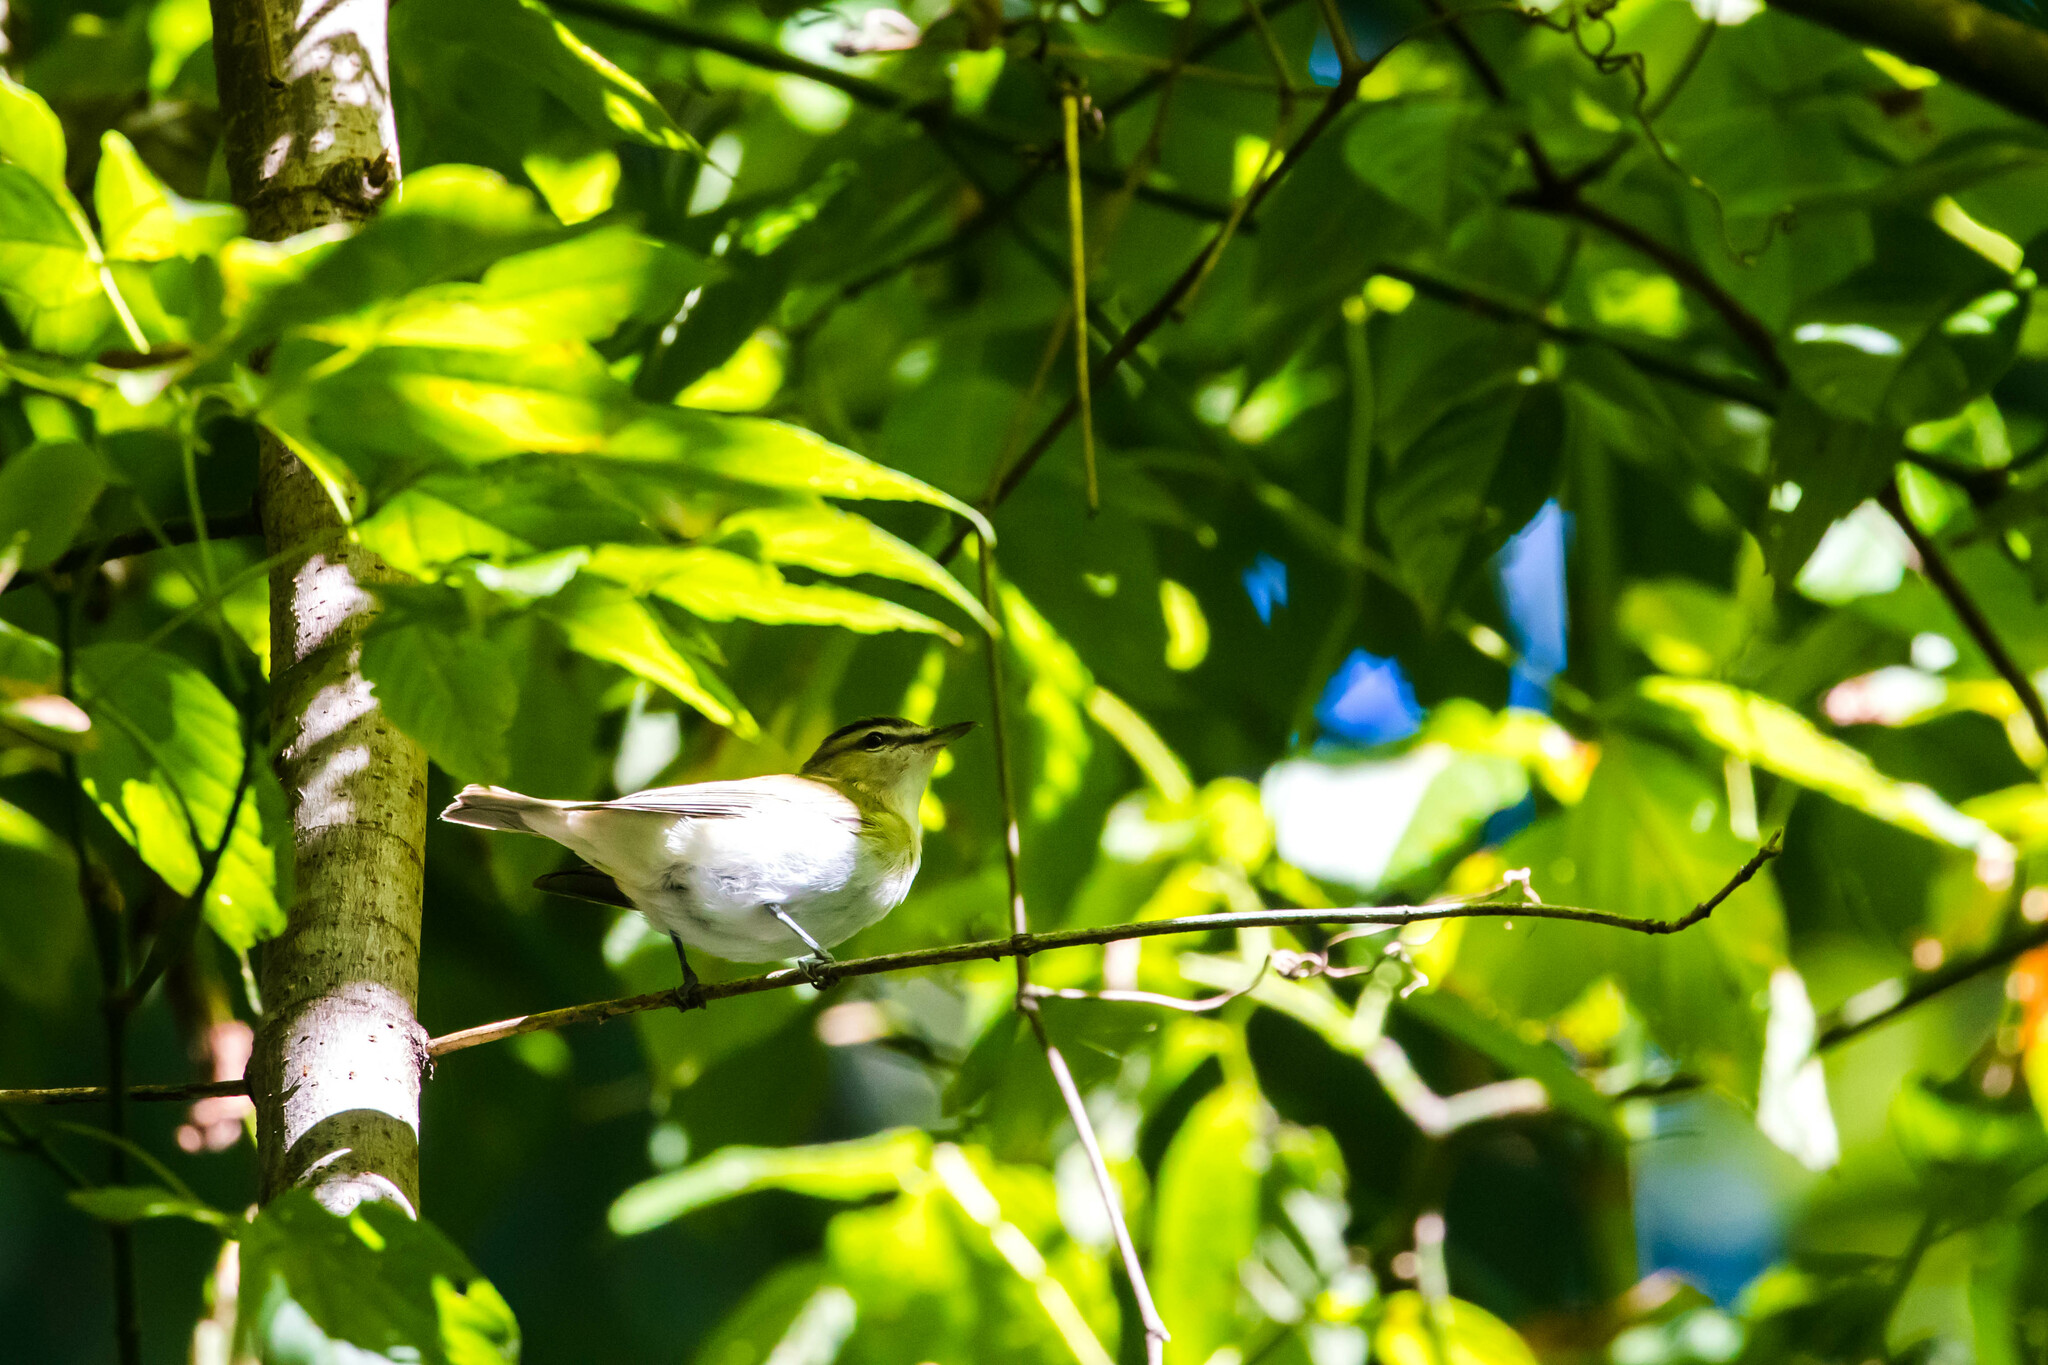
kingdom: Animalia
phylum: Chordata
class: Aves
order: Passeriformes
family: Vireonidae
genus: Vireo
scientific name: Vireo olivaceus
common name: Red-eyed vireo
